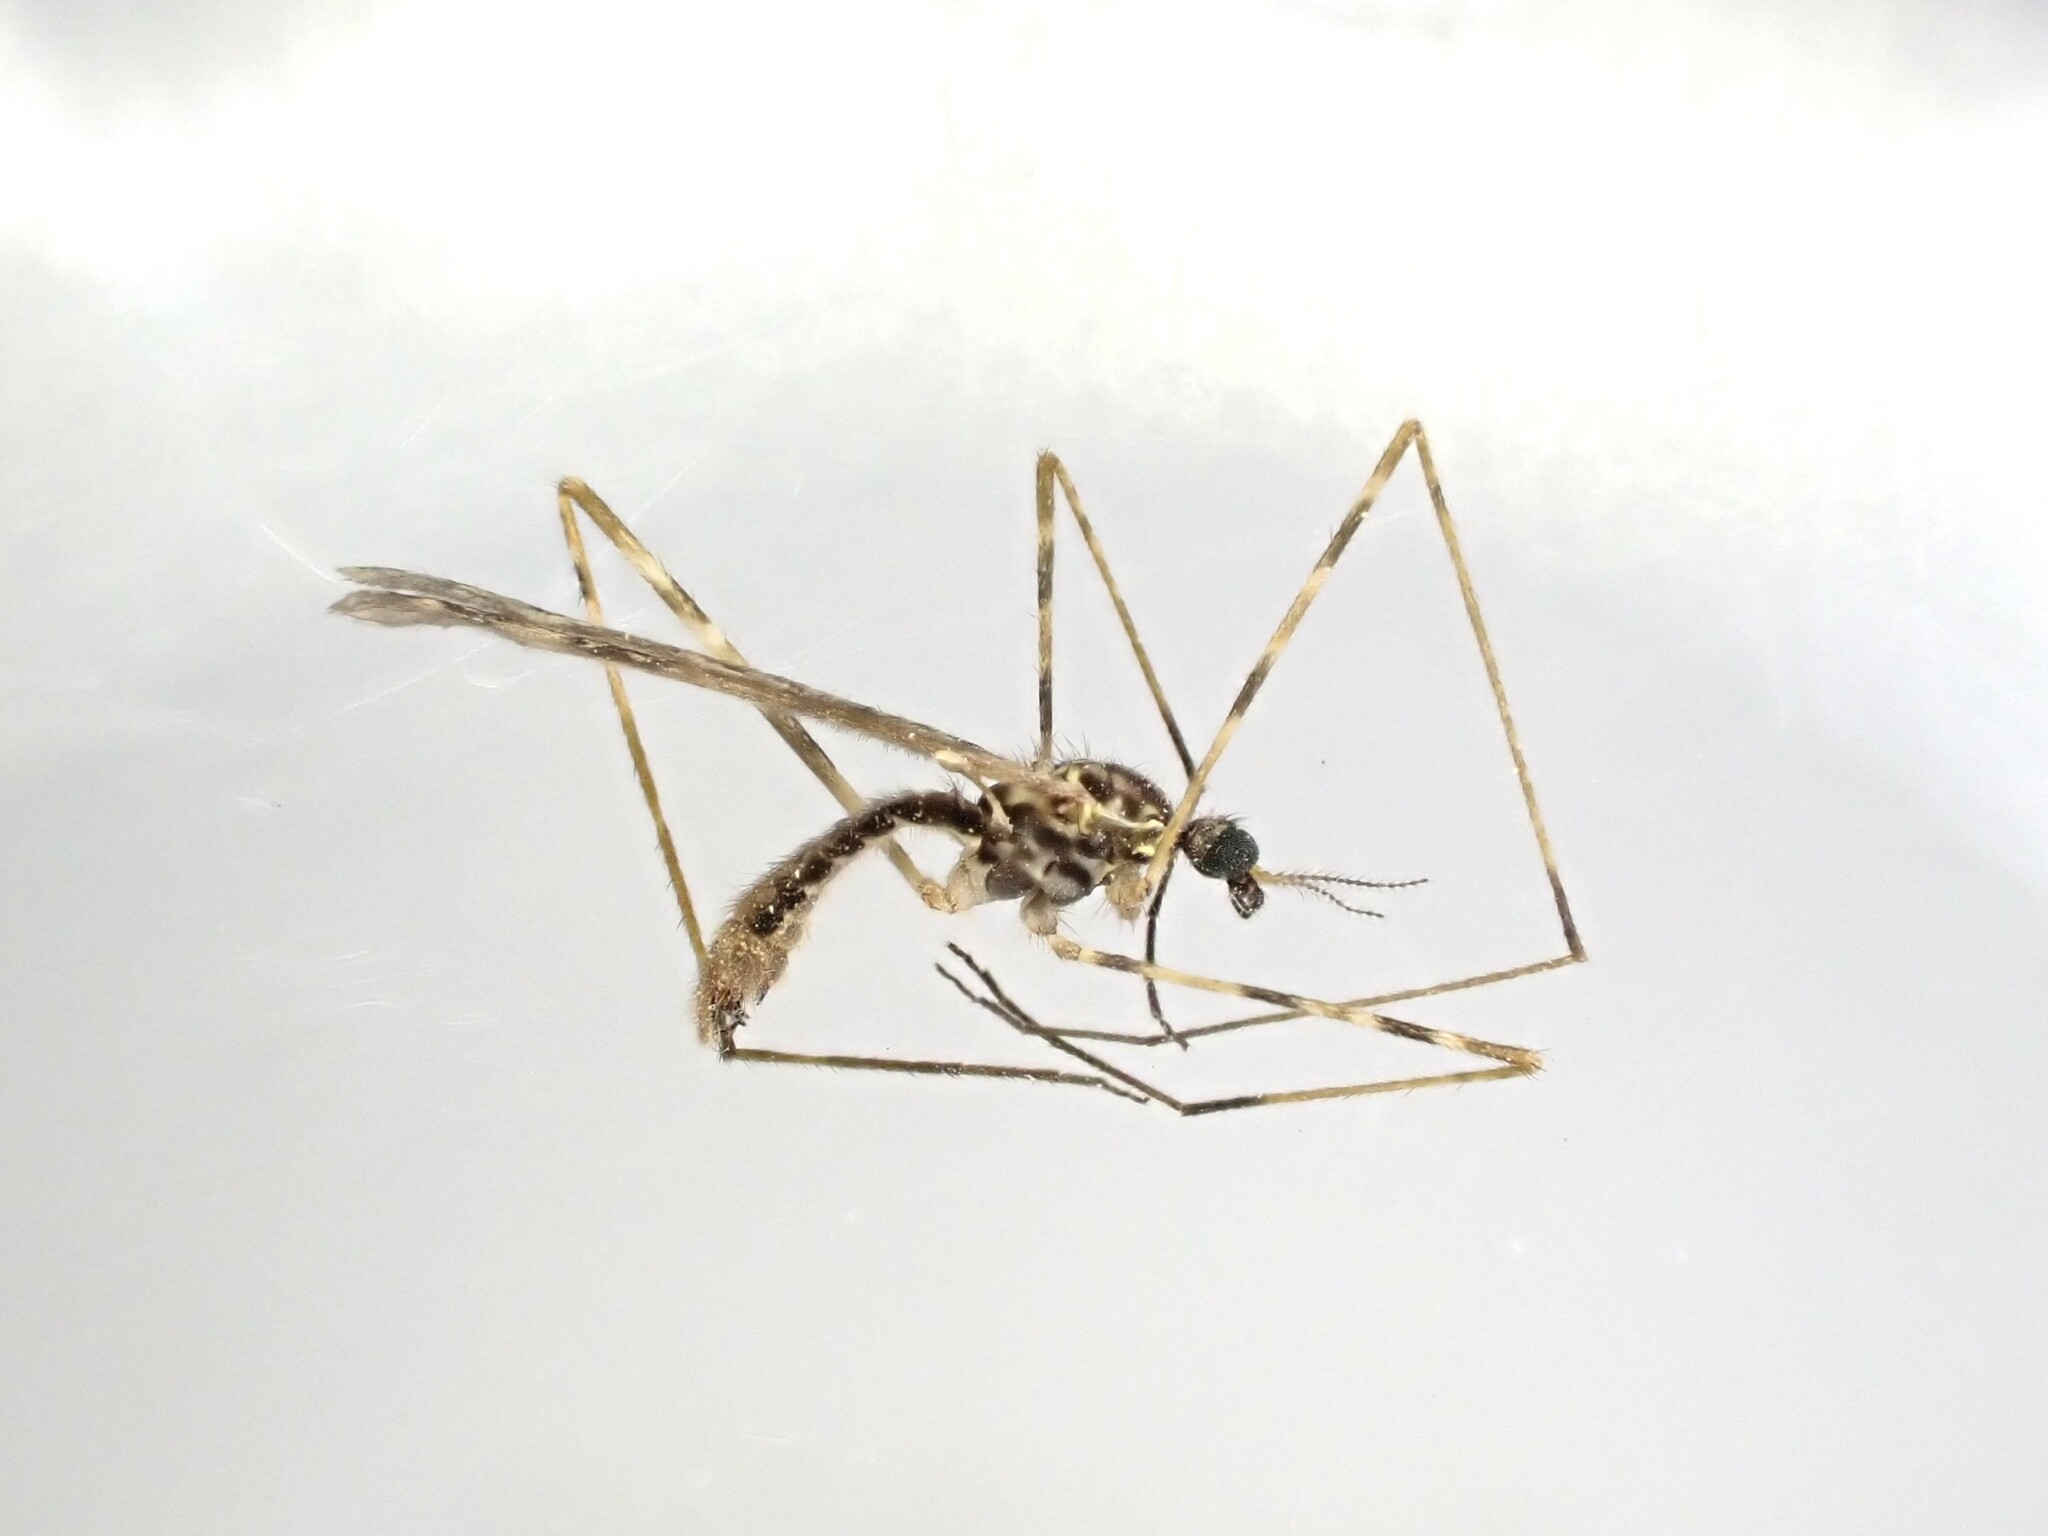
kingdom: Animalia
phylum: Arthropoda
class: Insecta
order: Diptera
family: Limoniidae
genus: Amphineurus
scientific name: Amphineurus hudsoni
